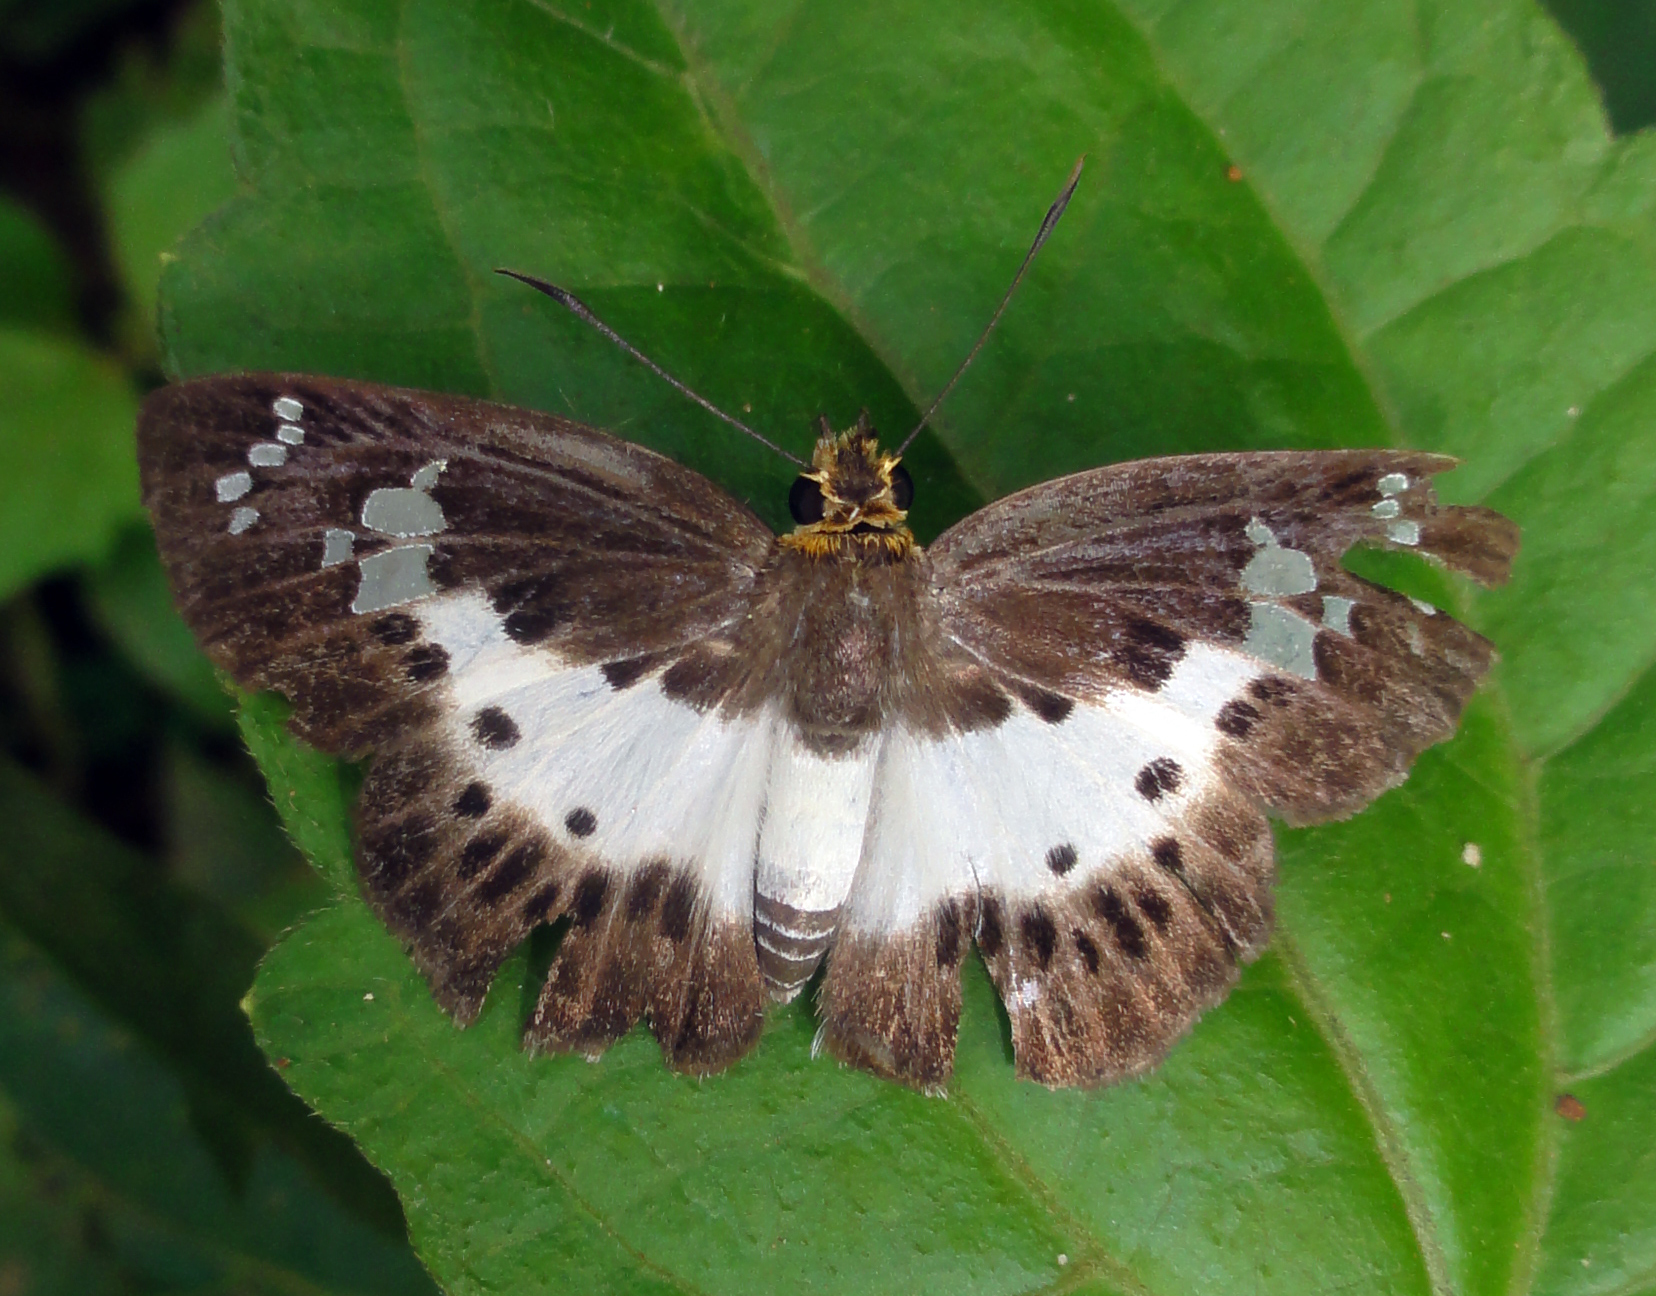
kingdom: Animalia
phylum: Arthropoda
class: Insecta
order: Lepidoptera
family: Hesperiidae
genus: Daimio
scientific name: Daimio
